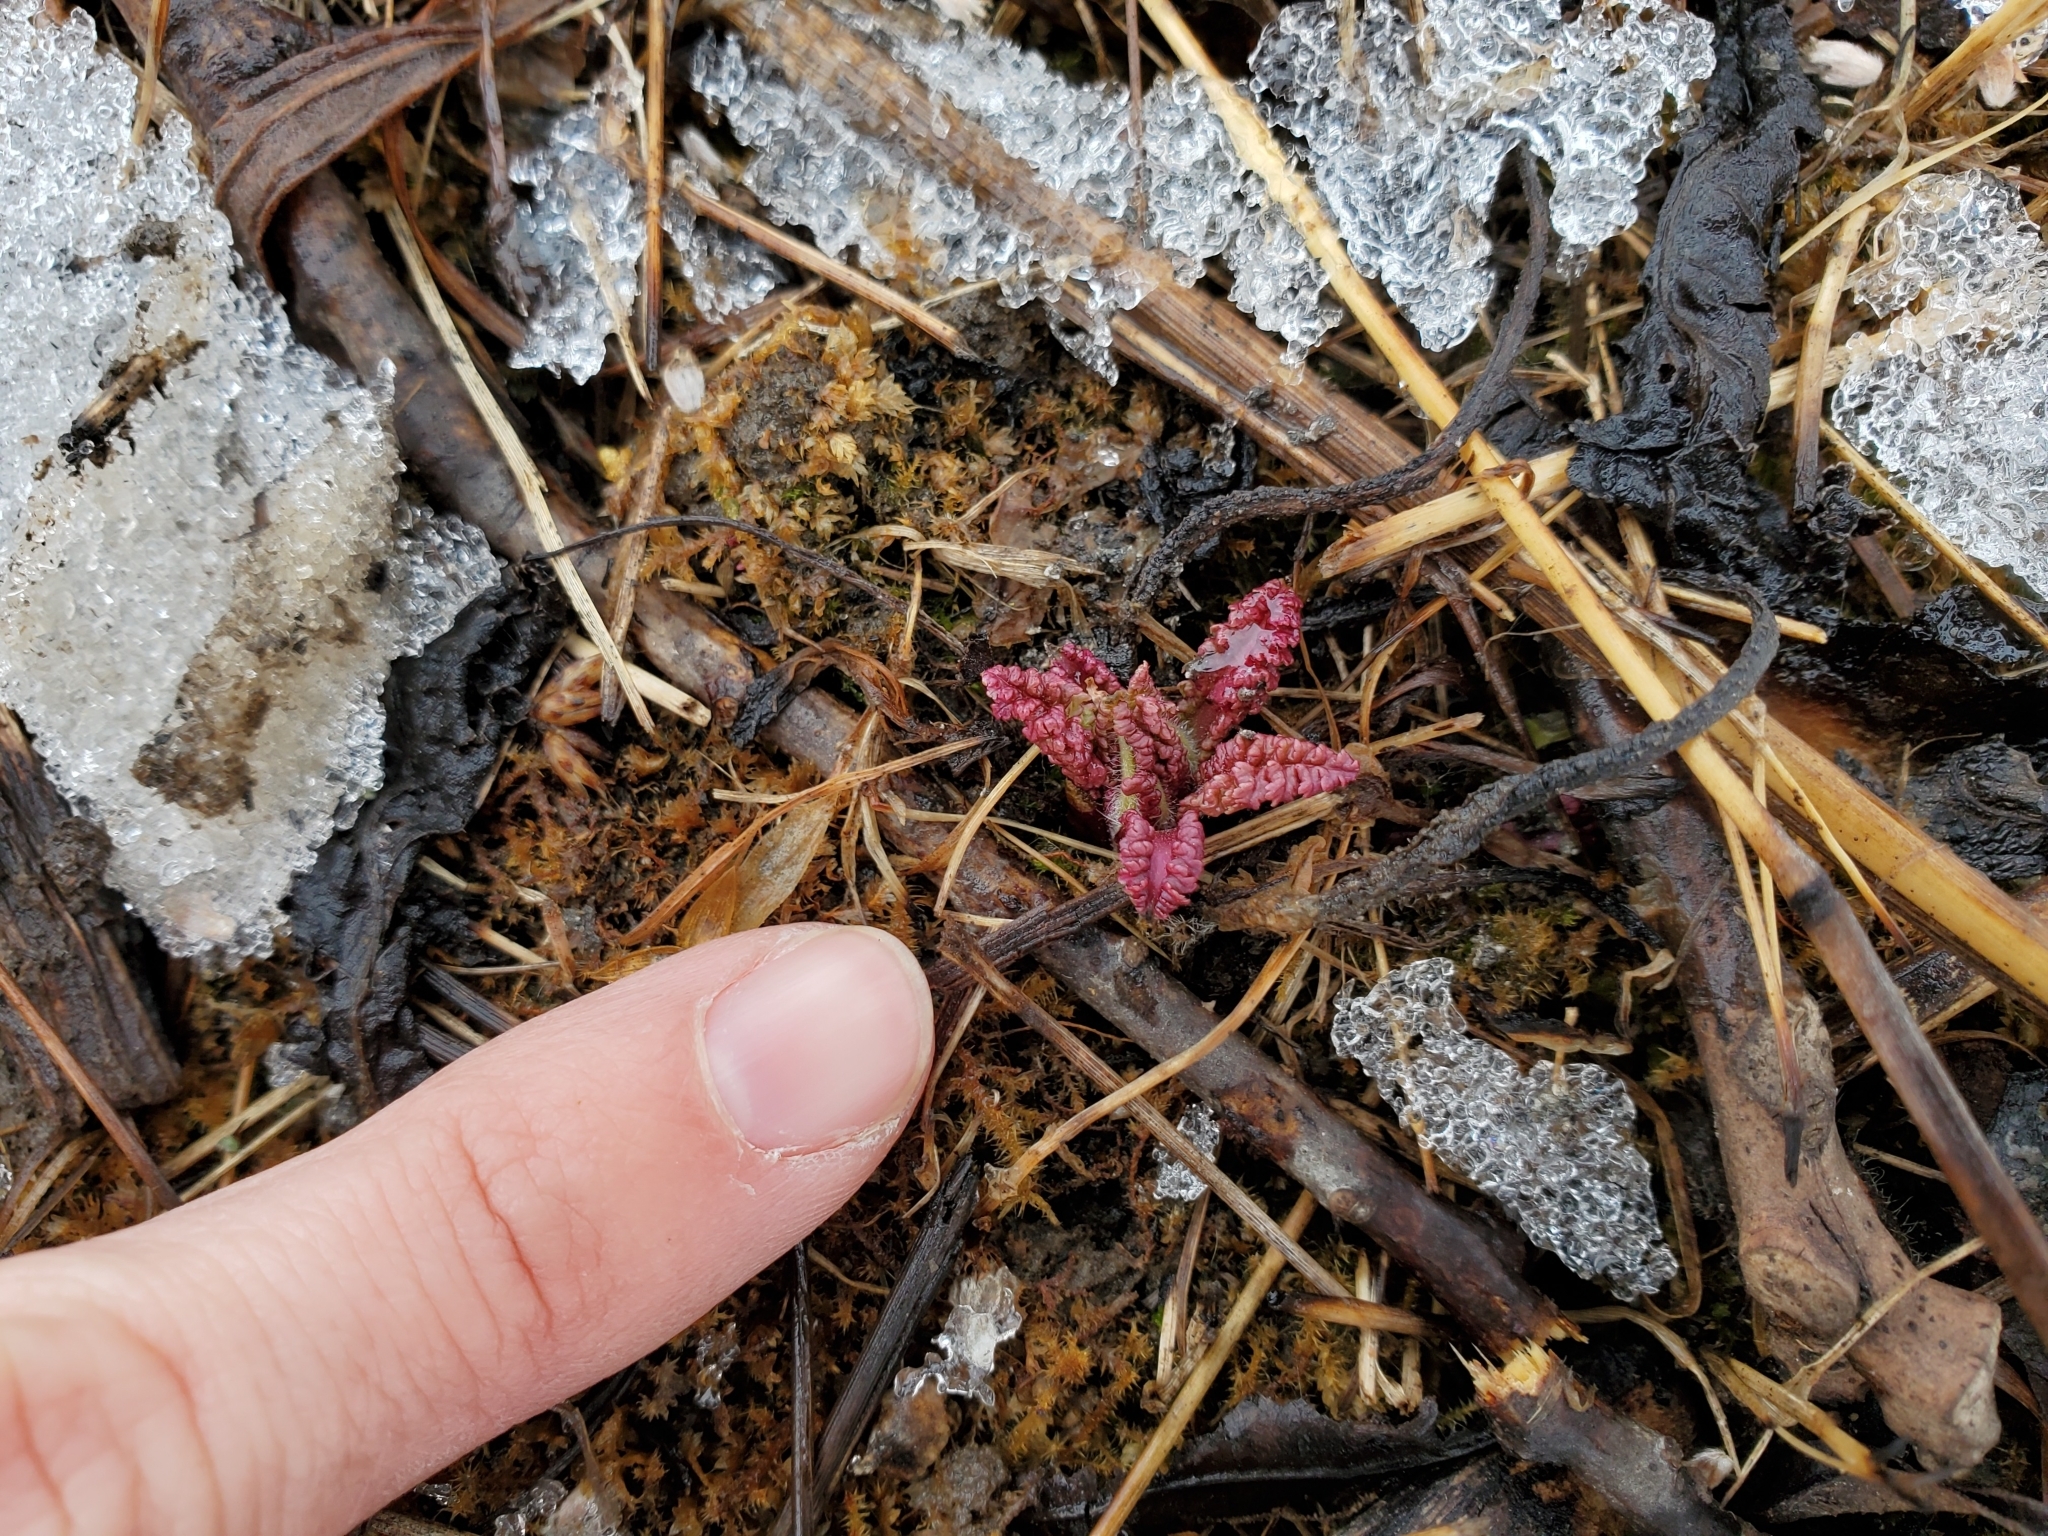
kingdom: Plantae
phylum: Tracheophyta
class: Magnoliopsida
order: Lamiales
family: Orobanchaceae
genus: Pedicularis
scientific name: Pedicularis canadensis
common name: Early lousewort
